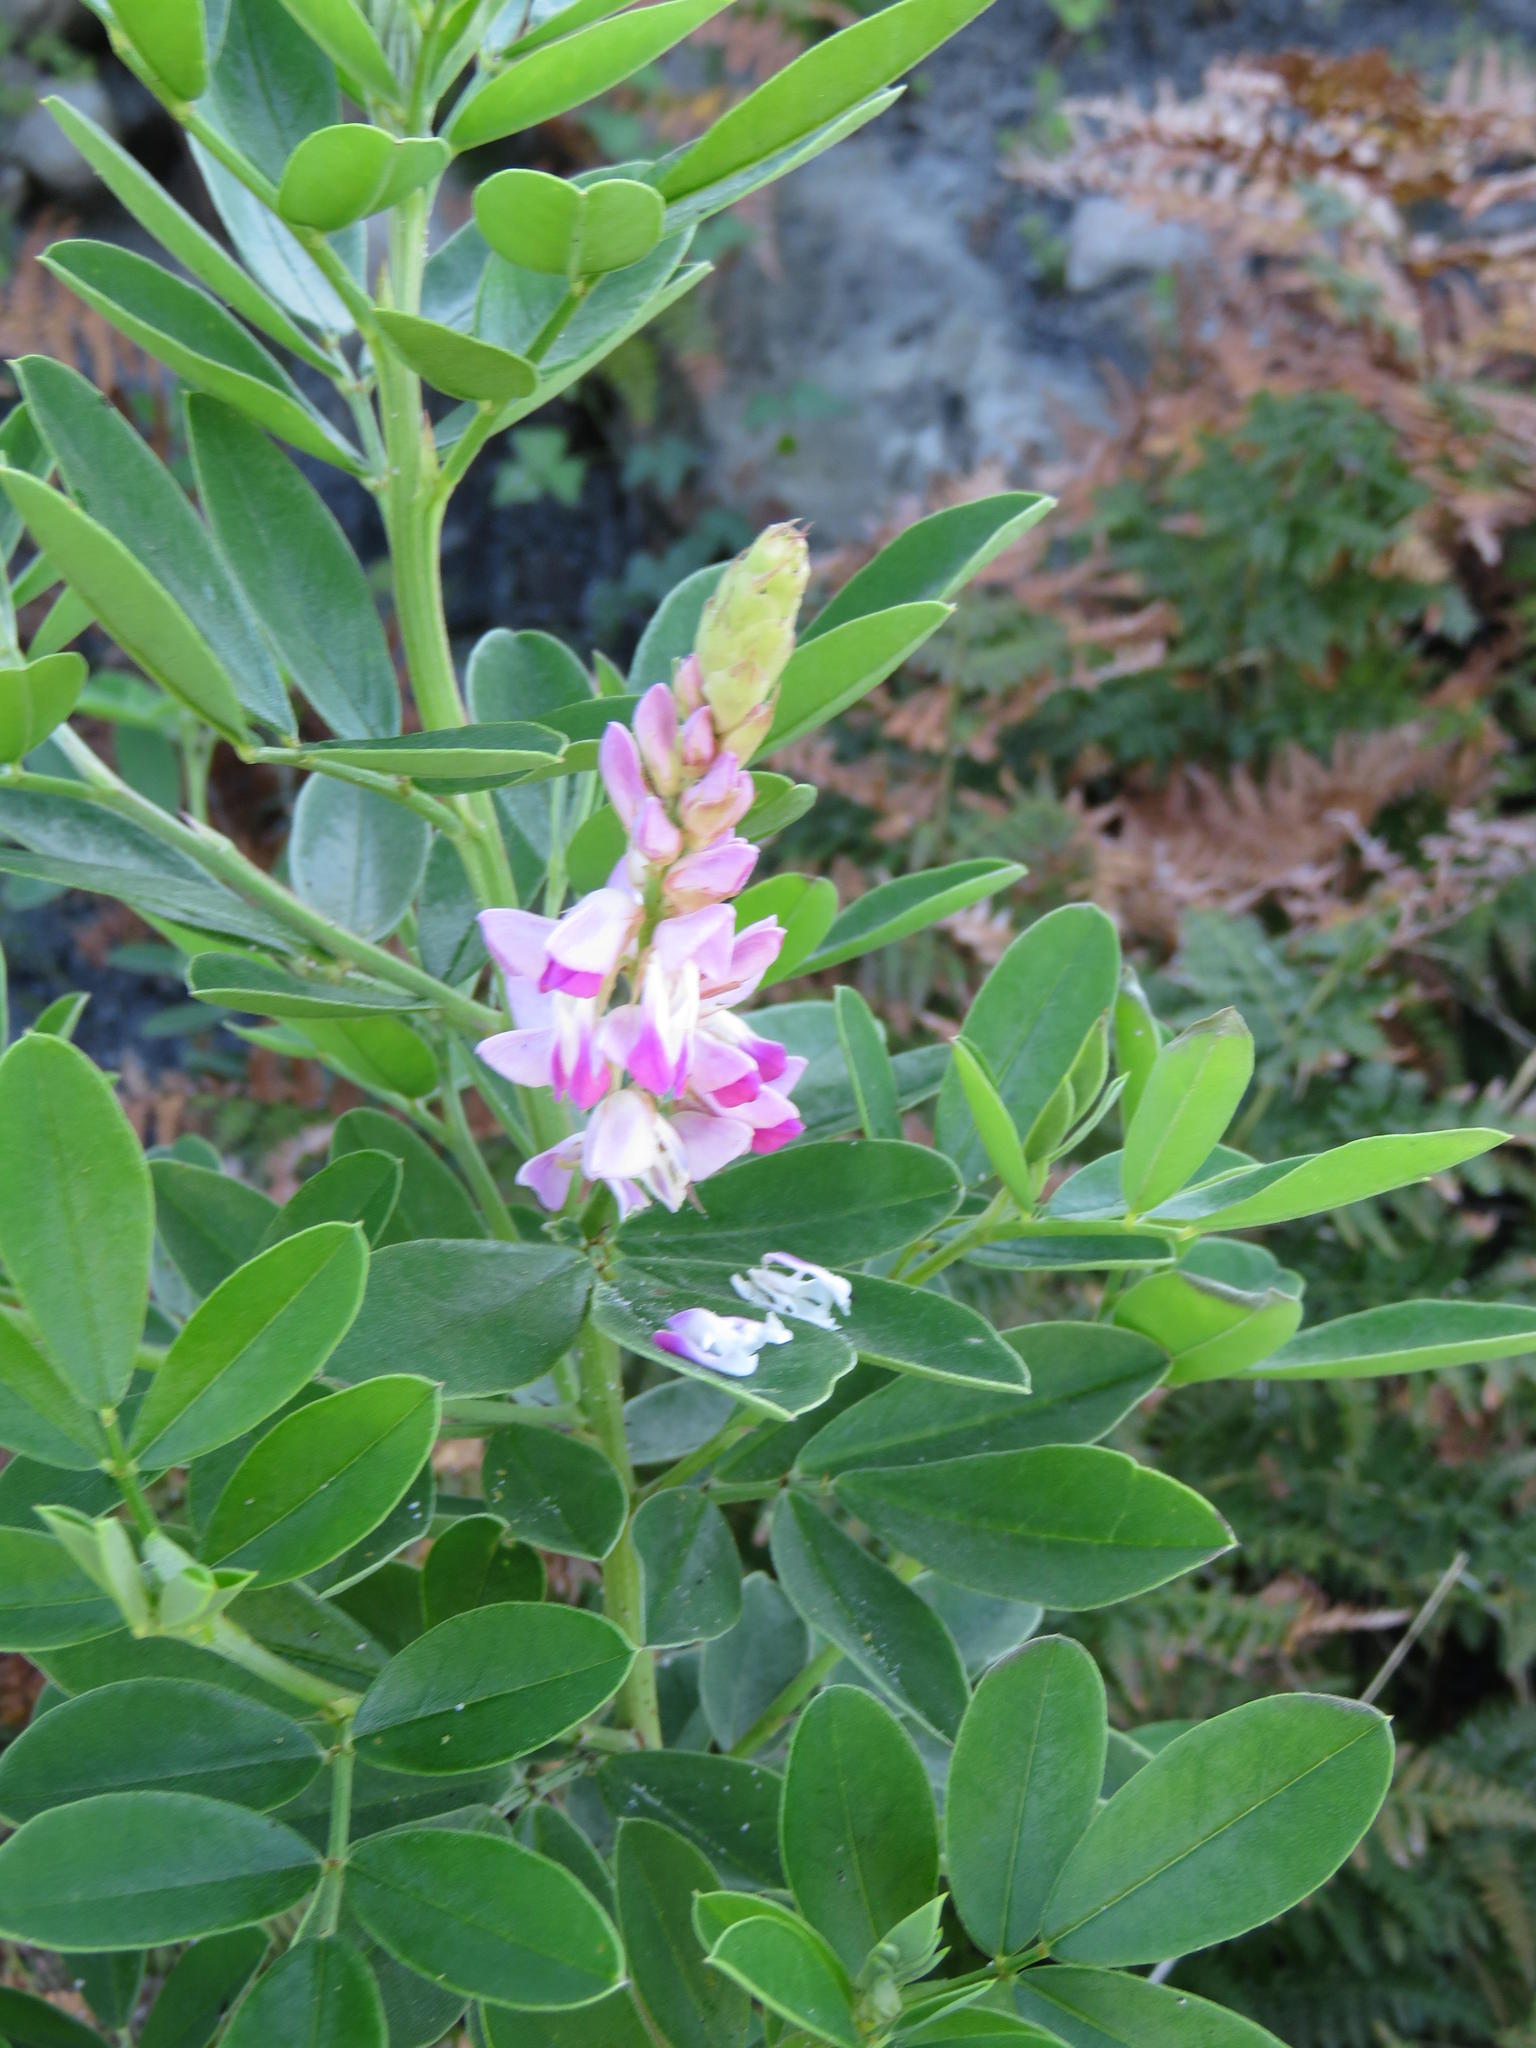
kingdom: Plantae
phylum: Tracheophyta
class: Magnoliopsida
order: Fabales
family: Fabaceae
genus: Indigofera
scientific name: Indigofera cytisoides
